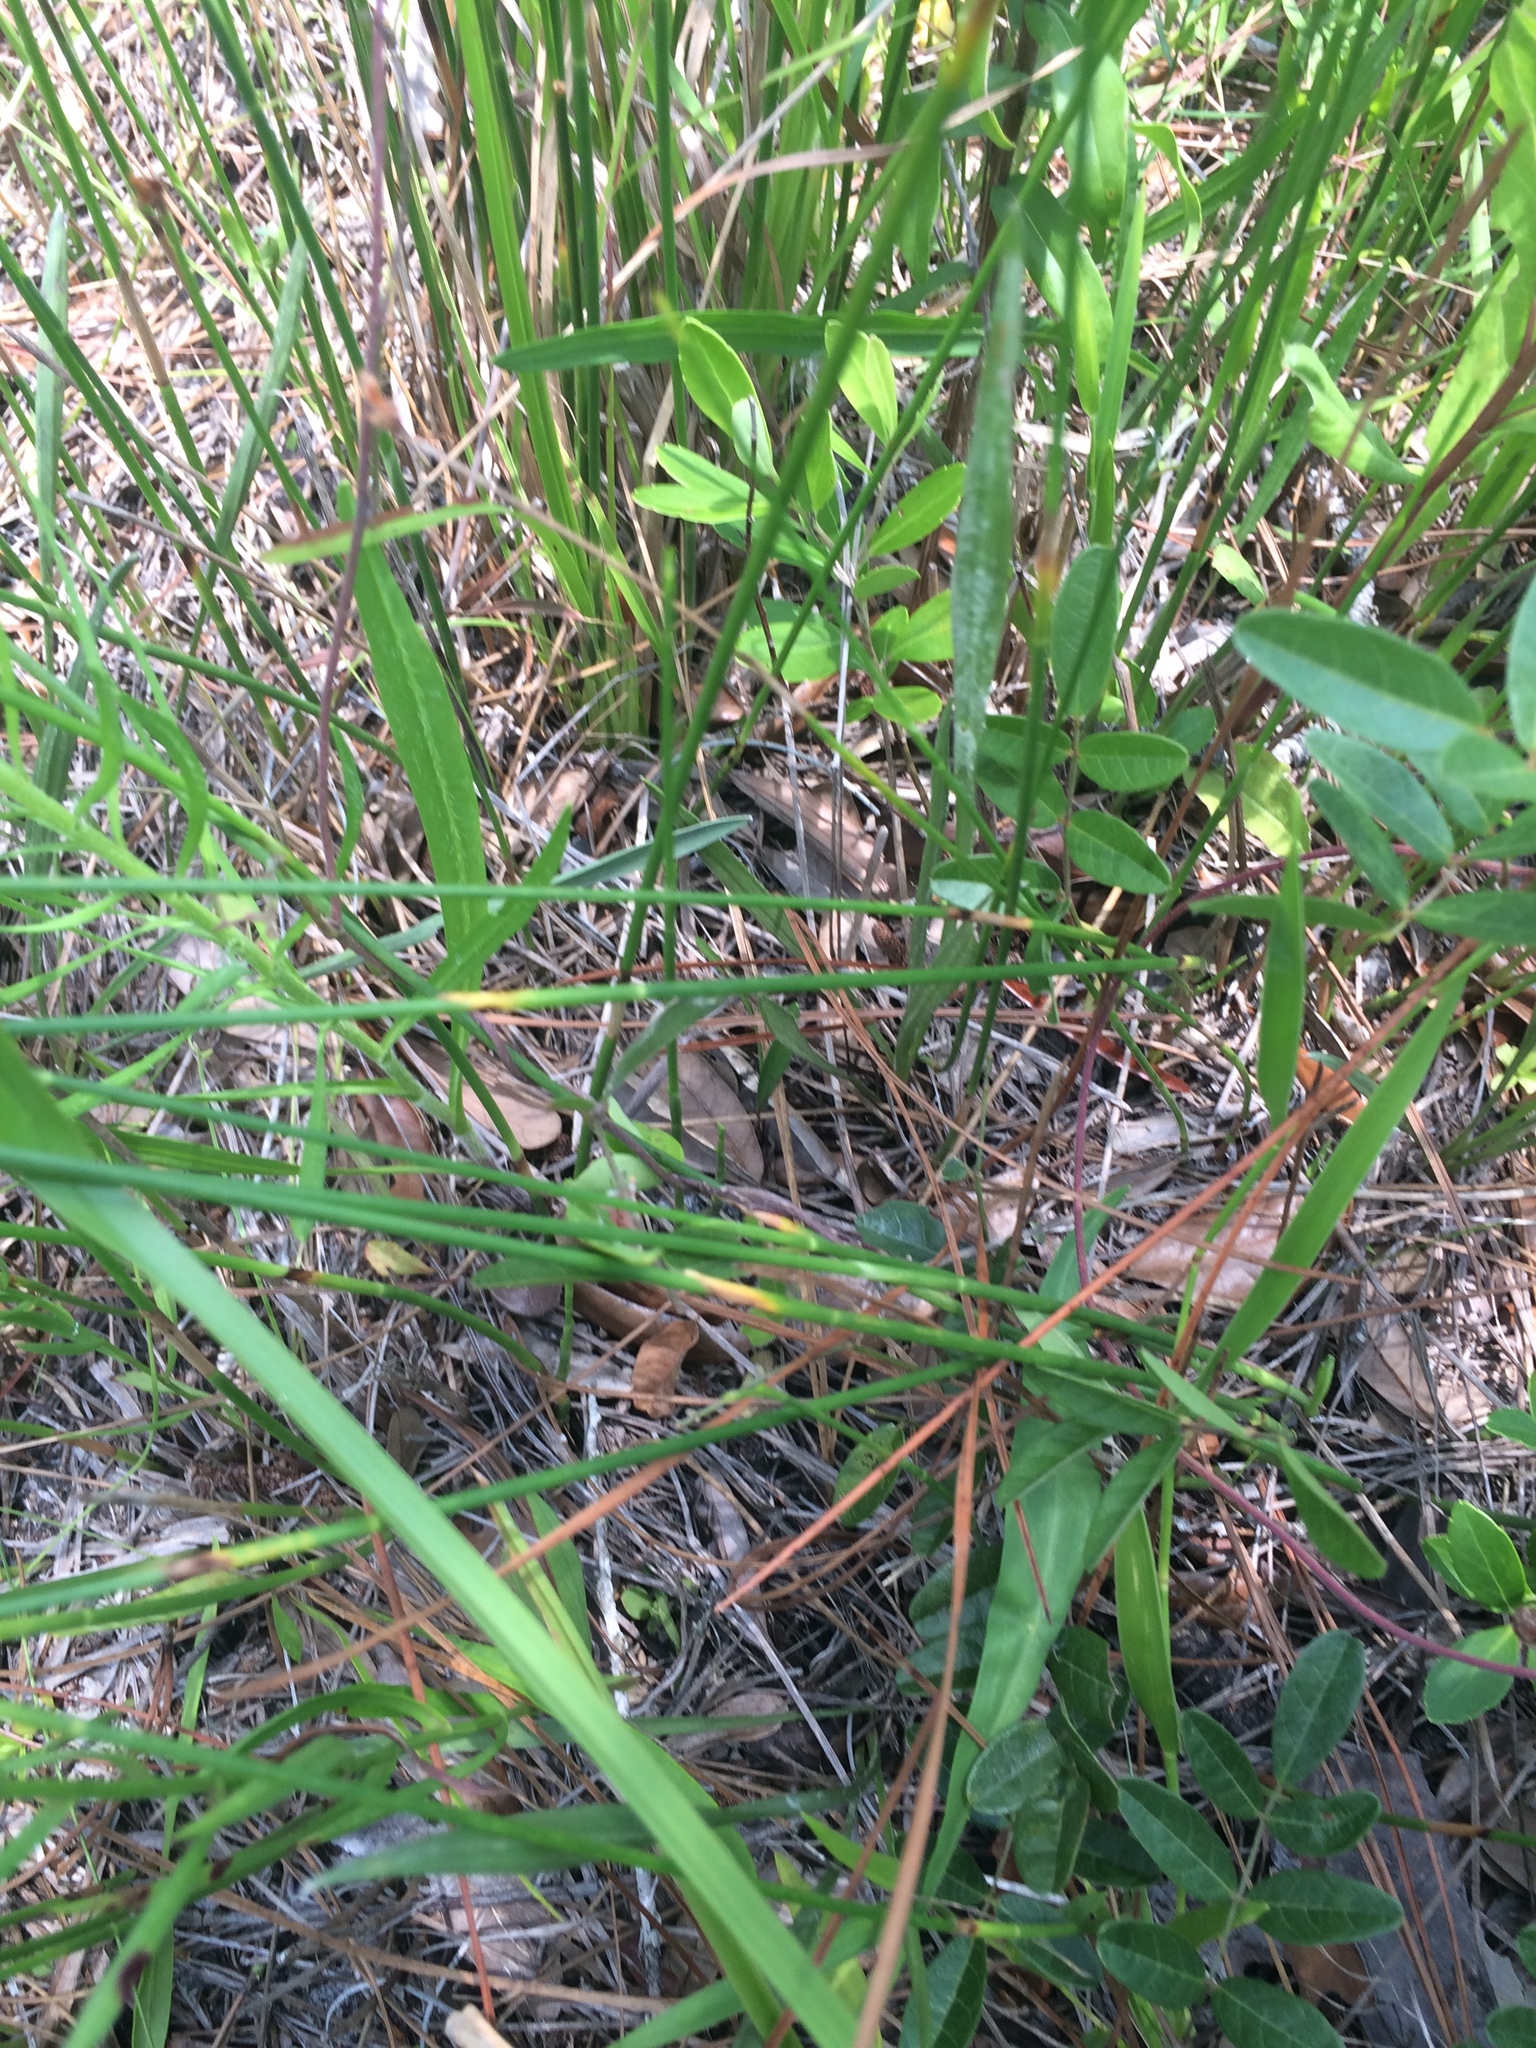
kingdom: Plantae
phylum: Tracheophyta
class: Liliopsida
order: Poales
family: Cyperaceae
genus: Fuirena
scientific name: Fuirena scirpoidea
